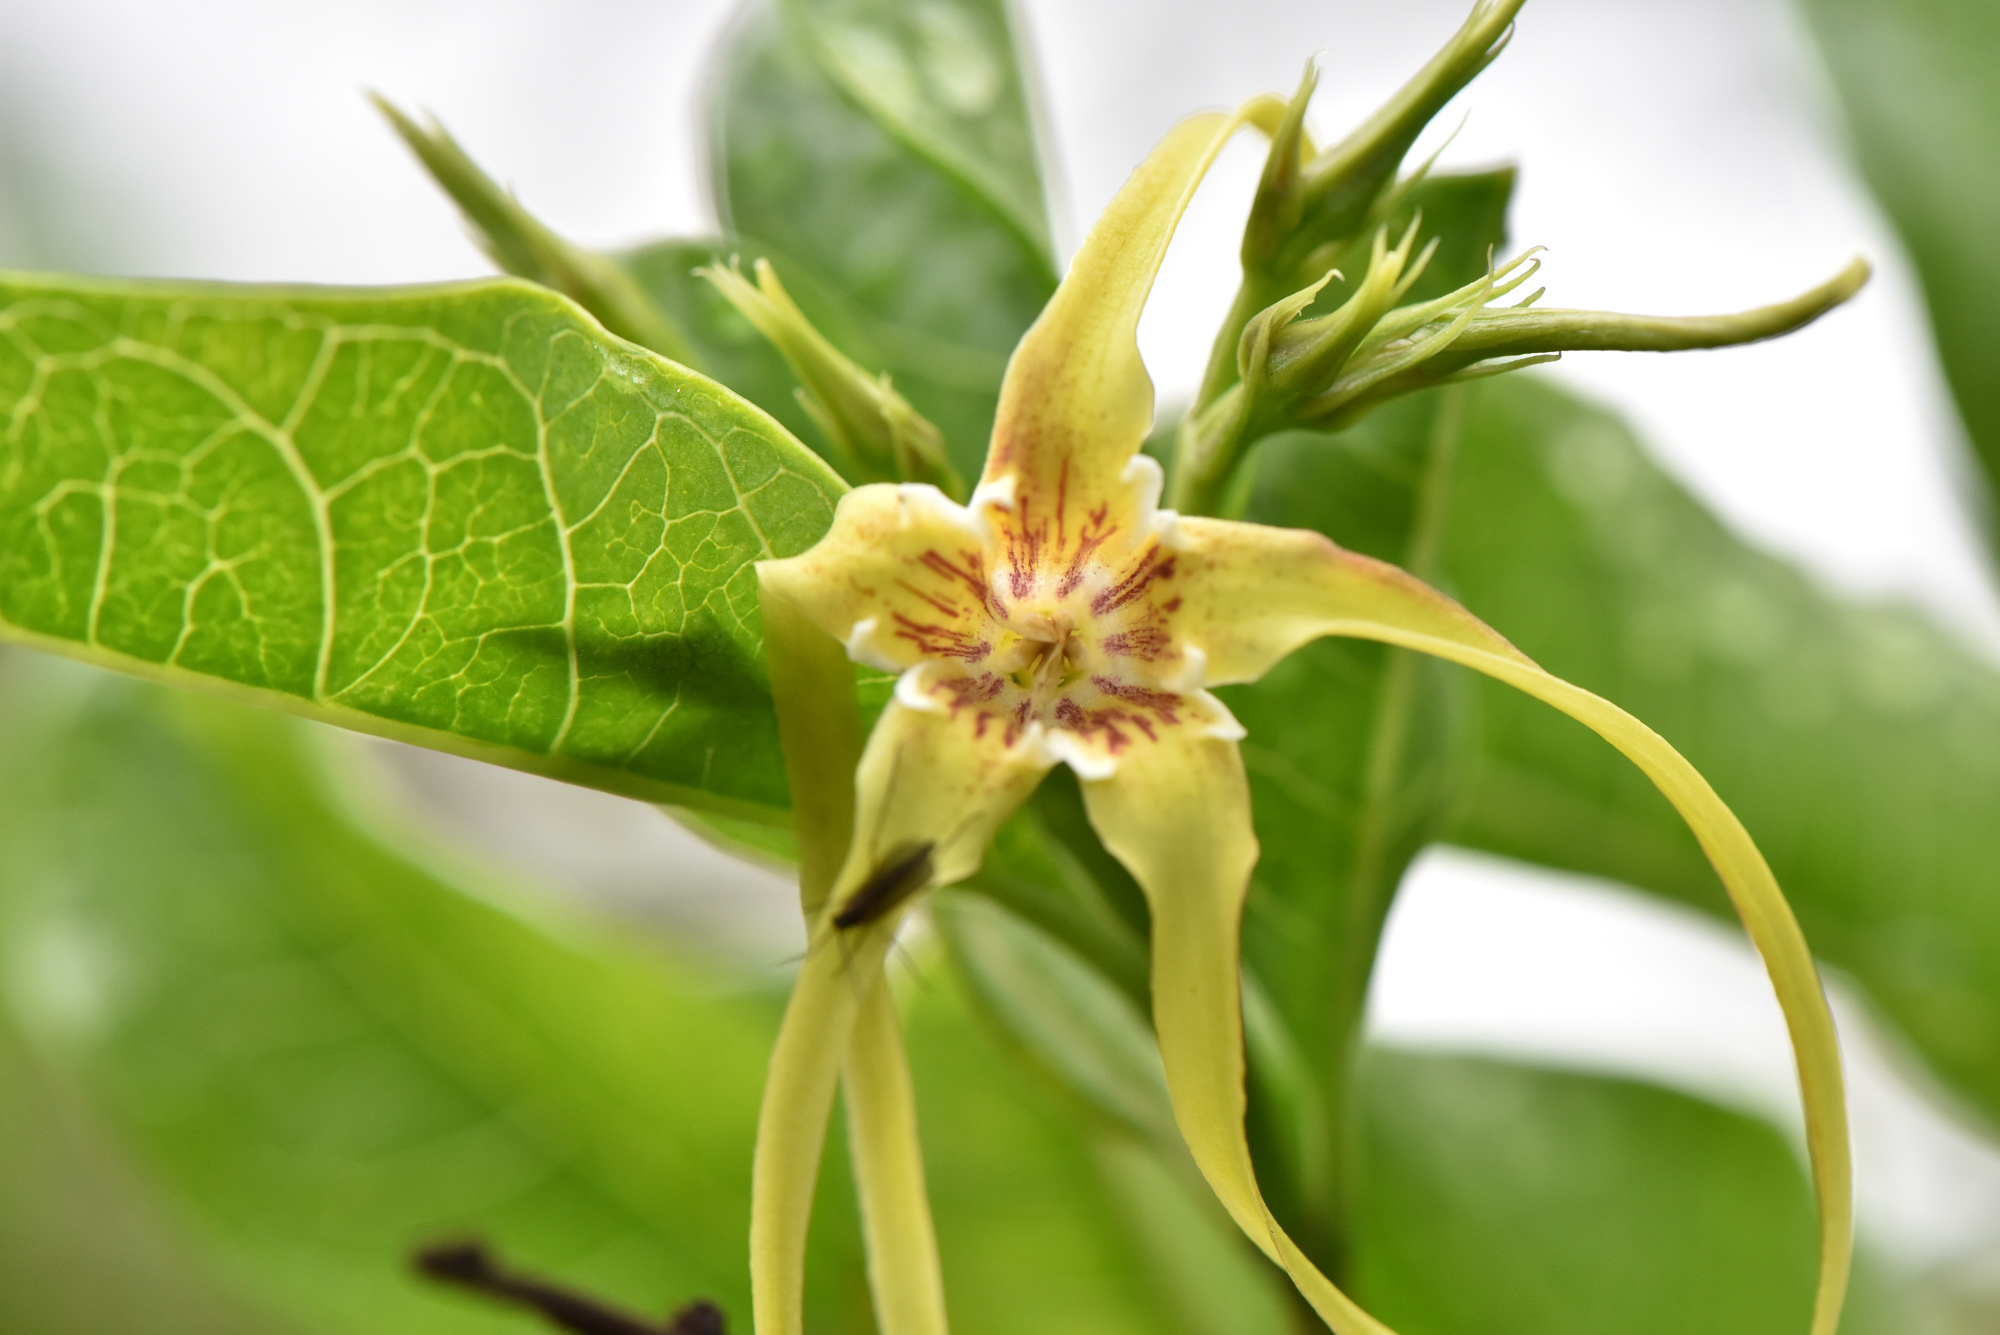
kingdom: Plantae
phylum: Tracheophyta
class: Magnoliopsida
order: Gentianales
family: Apocynaceae
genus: Strophanthus
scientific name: Strophanthus divaricatus
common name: Goat-horns
